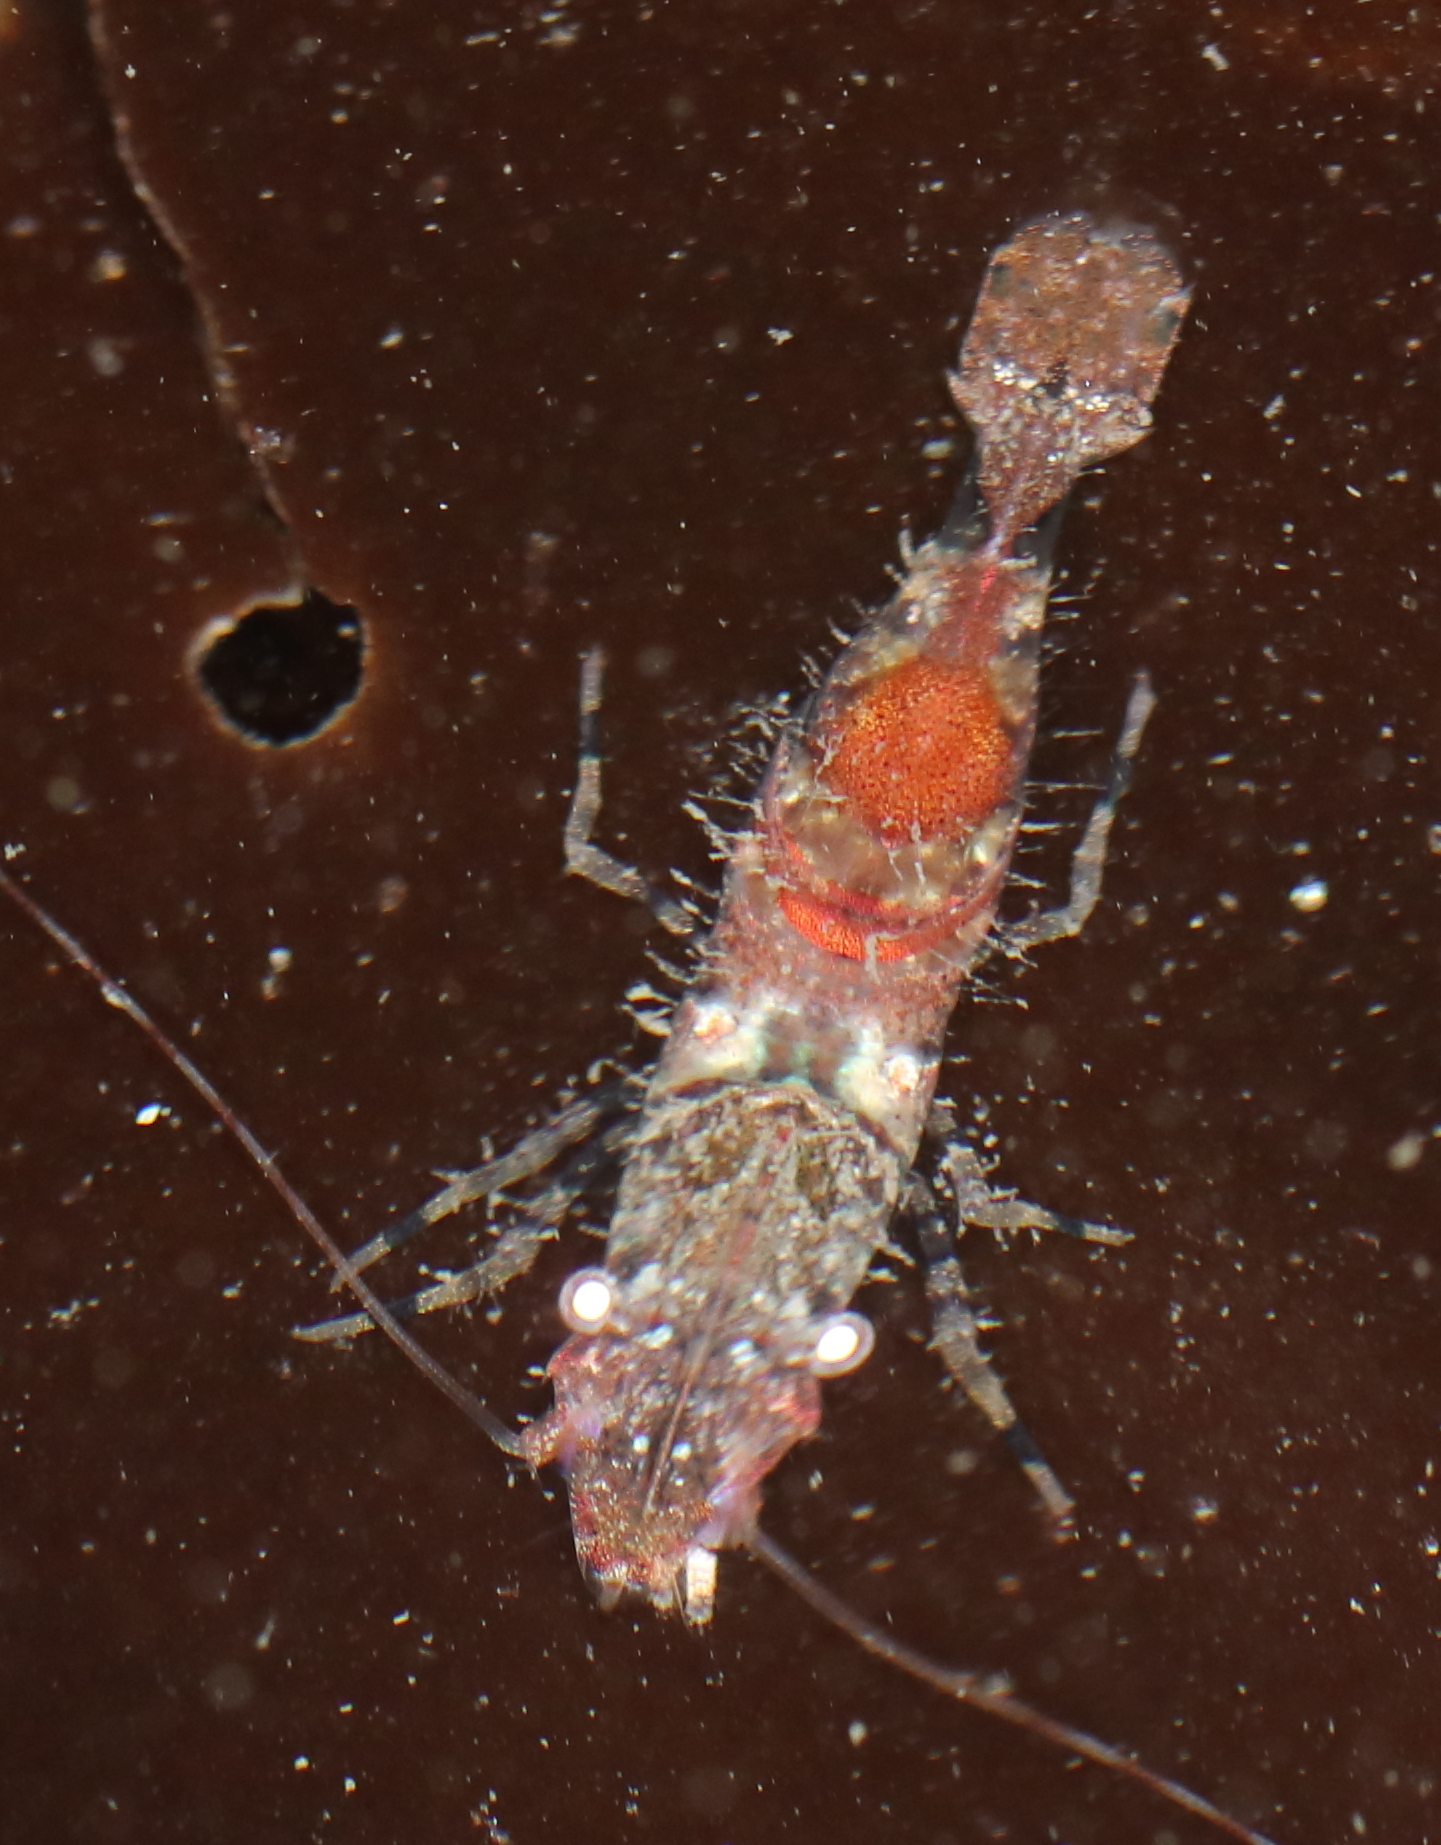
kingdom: Animalia
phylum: Arthropoda
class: Malacostraca
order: Decapoda
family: Thoridae
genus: Spirontocaris
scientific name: Spirontocaris prionota
